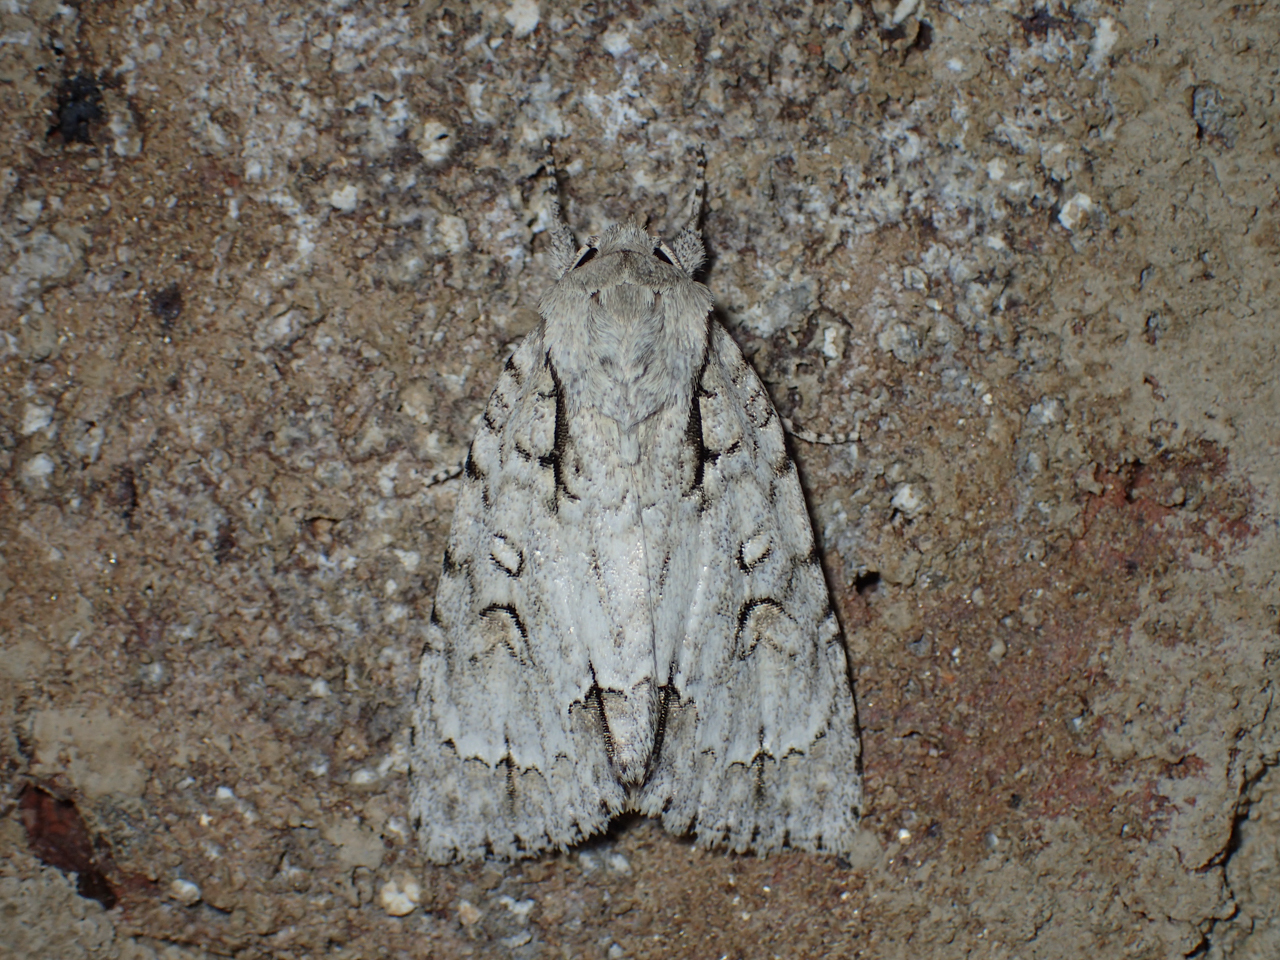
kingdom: Animalia
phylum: Arthropoda
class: Insecta
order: Lepidoptera
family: Noctuidae
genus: Acronicta
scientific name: Acronicta hasta
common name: Cherry dagger
